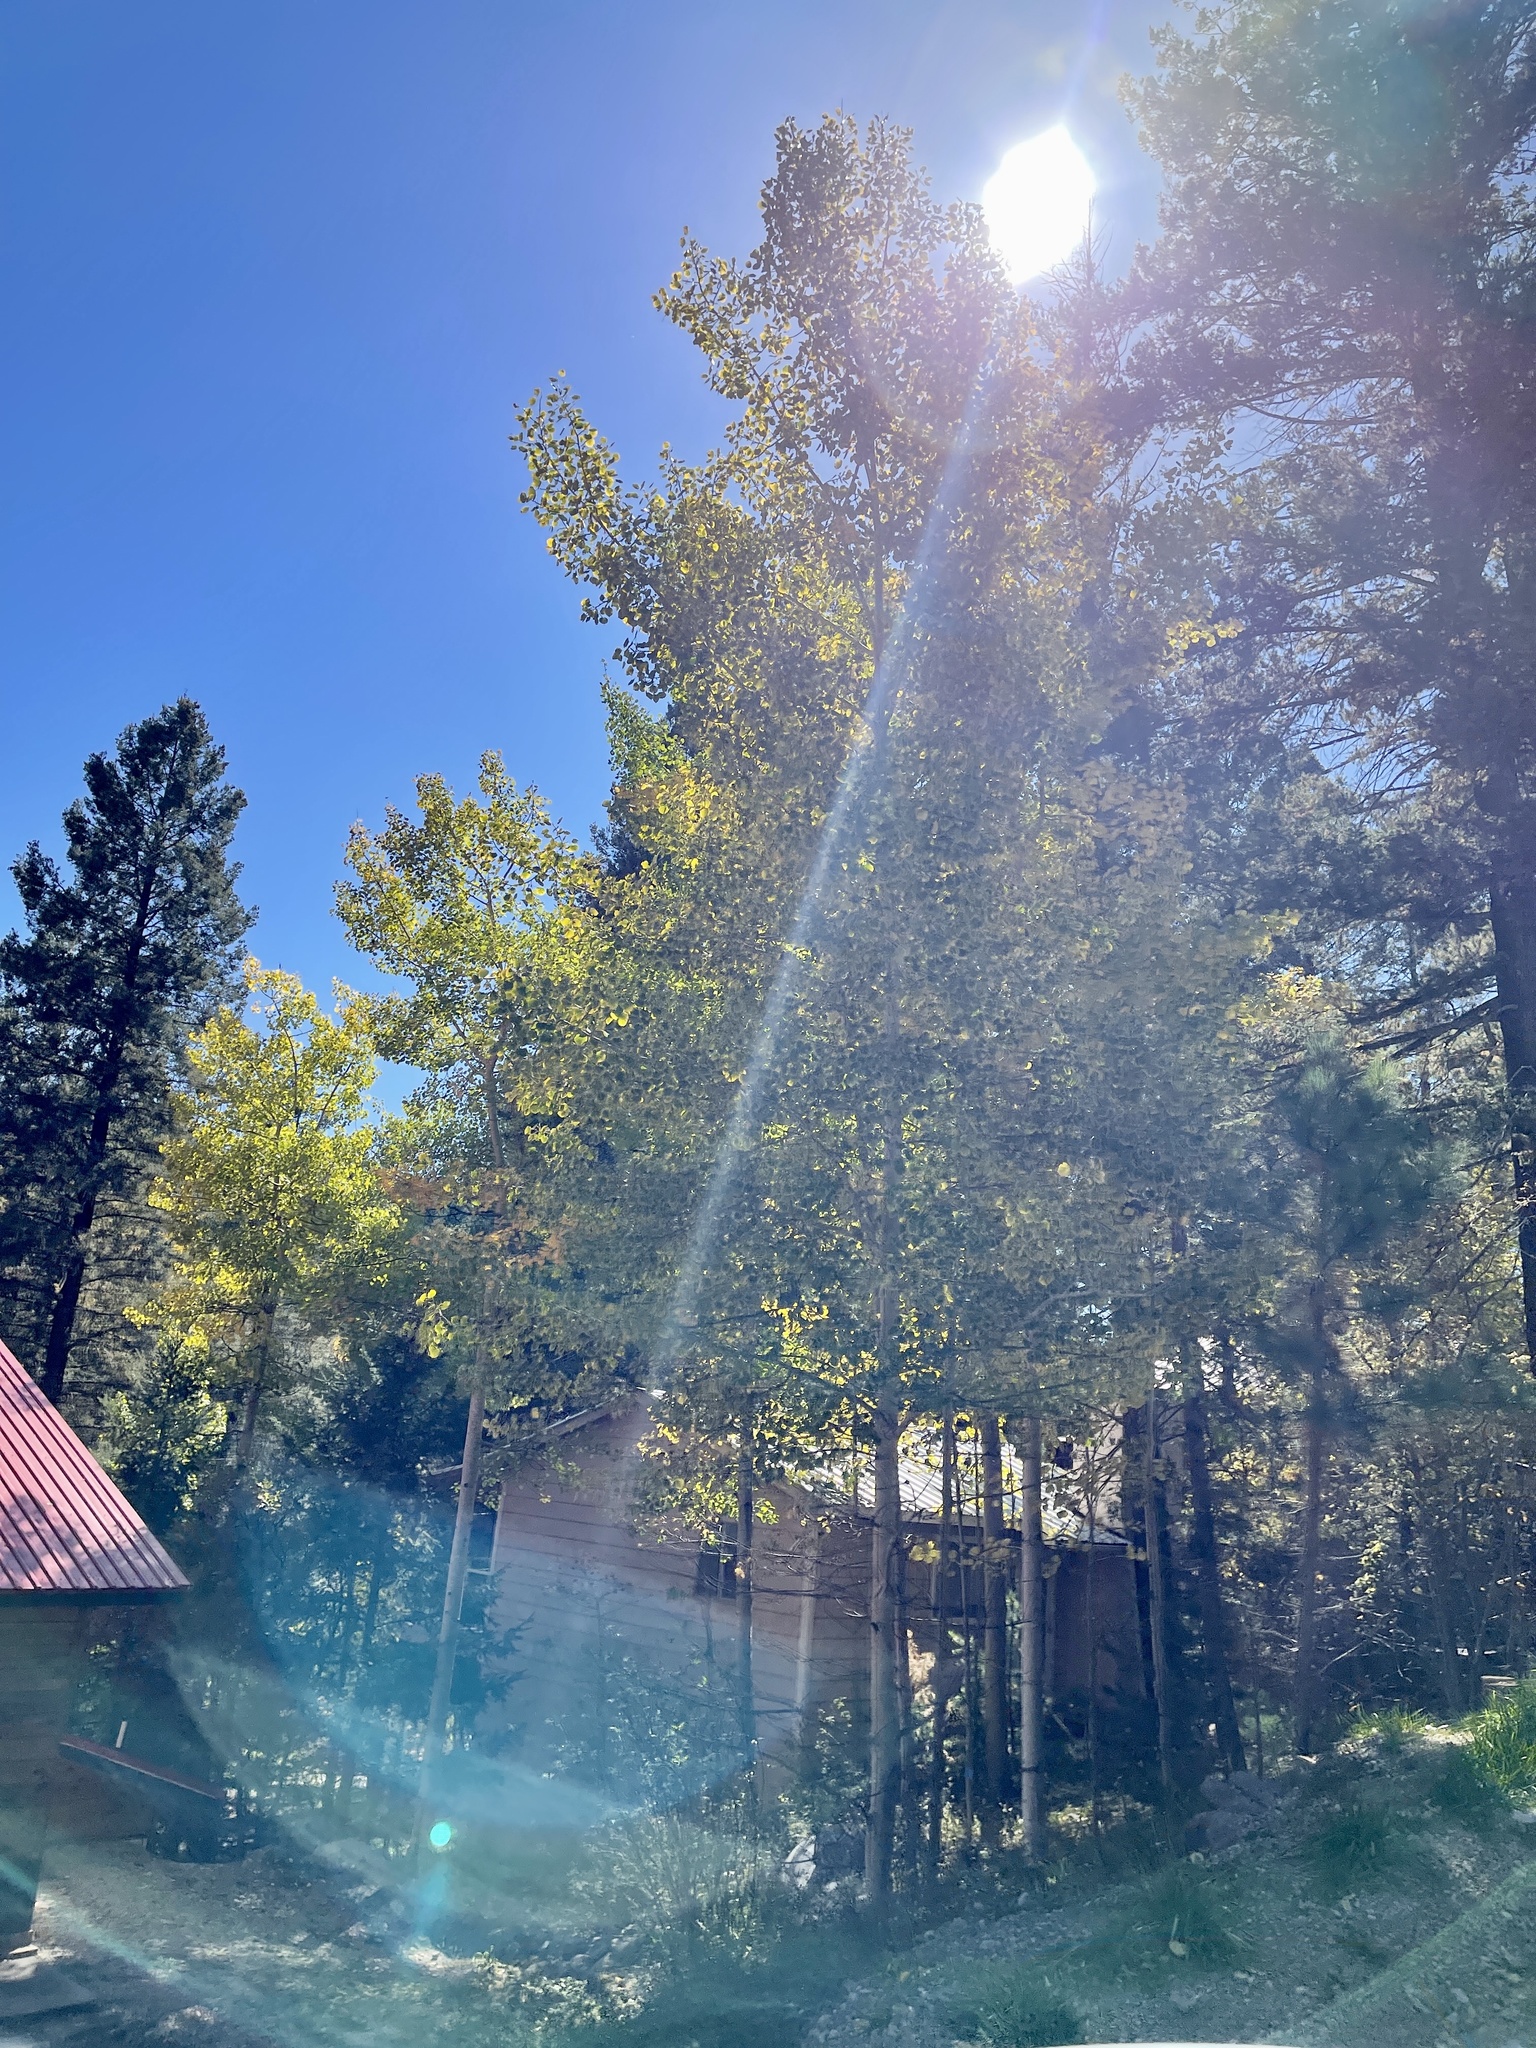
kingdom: Plantae
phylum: Tracheophyta
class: Magnoliopsida
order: Malpighiales
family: Salicaceae
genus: Populus
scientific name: Populus tremuloides
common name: Quaking aspen
